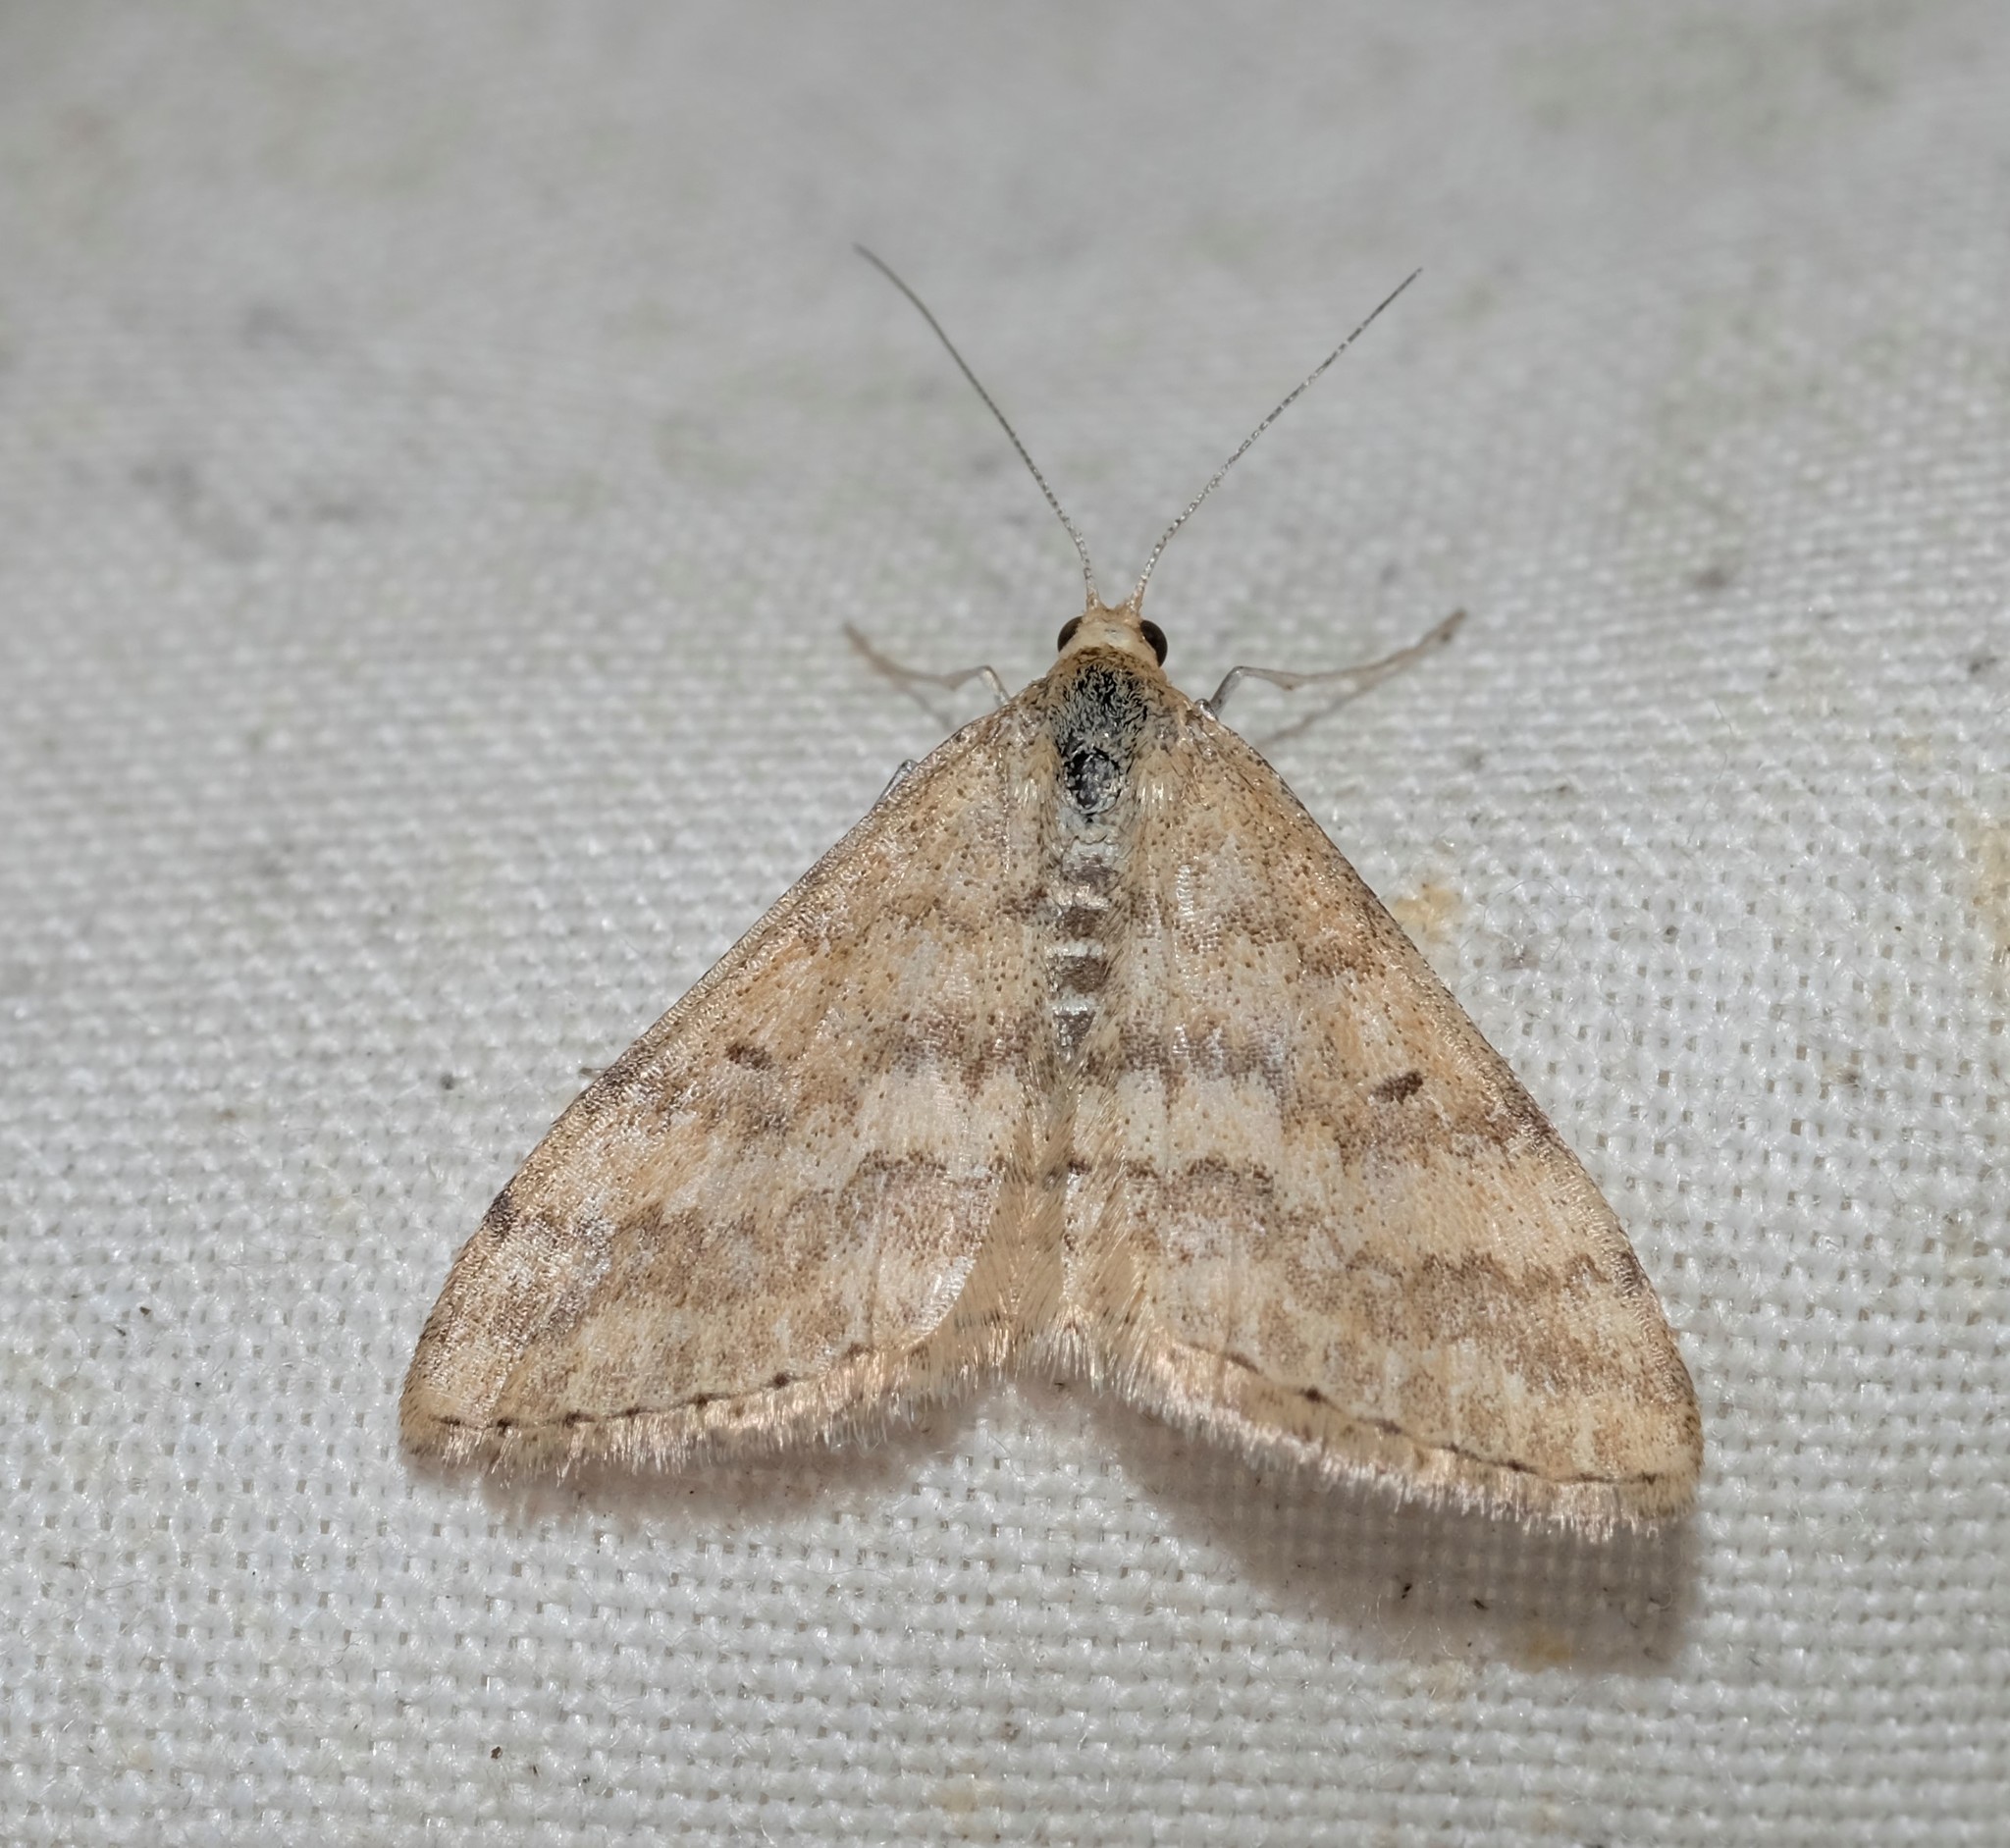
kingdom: Animalia
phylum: Arthropoda
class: Insecta
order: Lepidoptera
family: Geometridae
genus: Scopula
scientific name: Scopula rubraria
